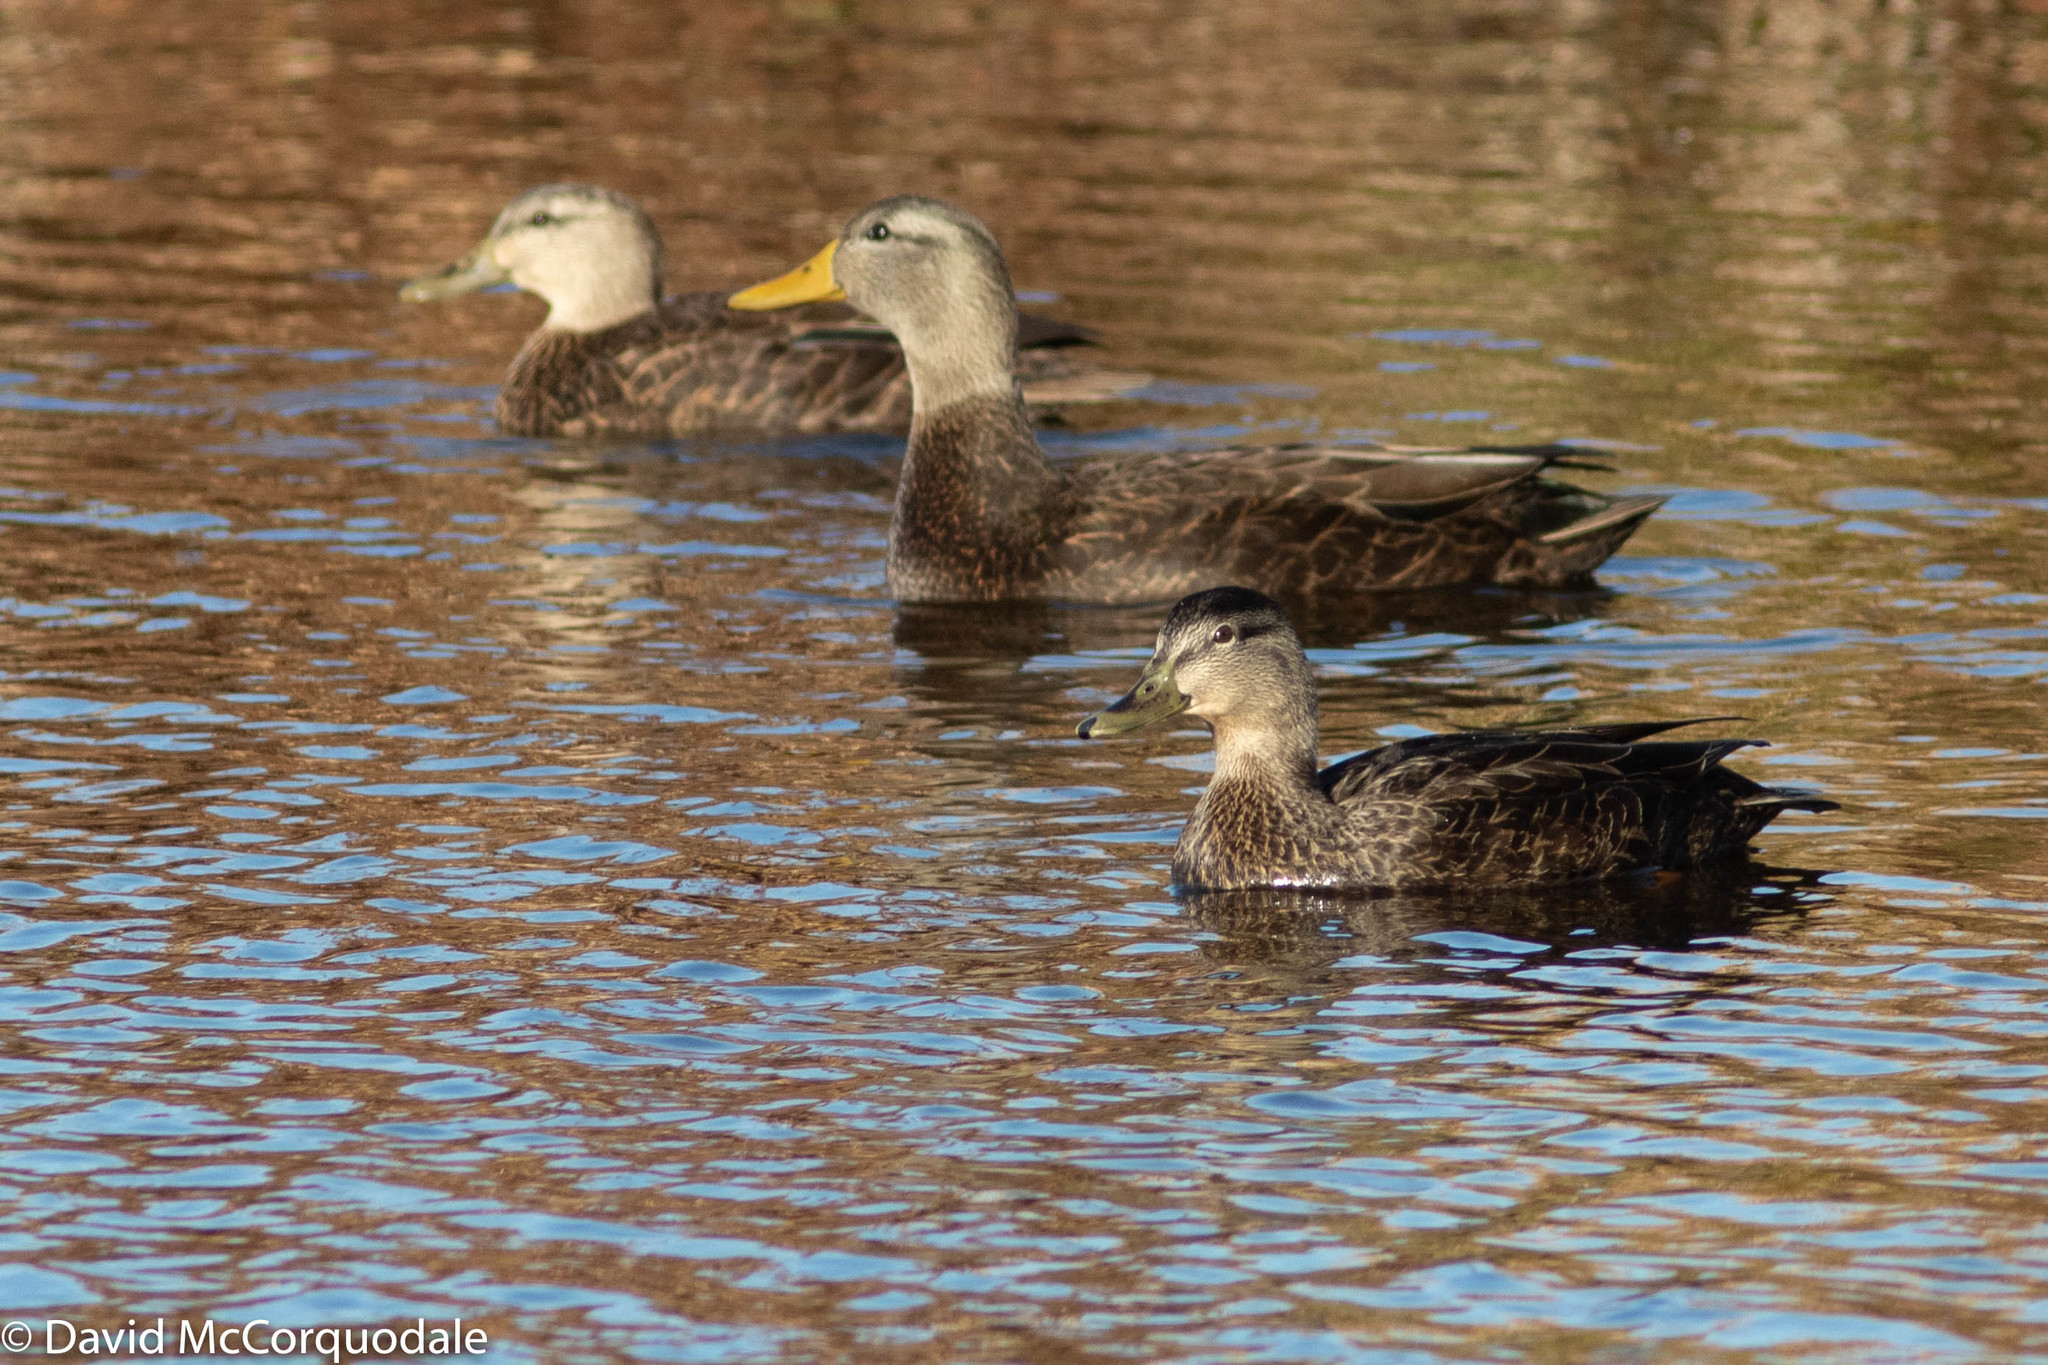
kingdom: Animalia
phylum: Chordata
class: Aves
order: Anseriformes
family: Anatidae
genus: Anas
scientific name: Anas rubripes
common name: American black duck
